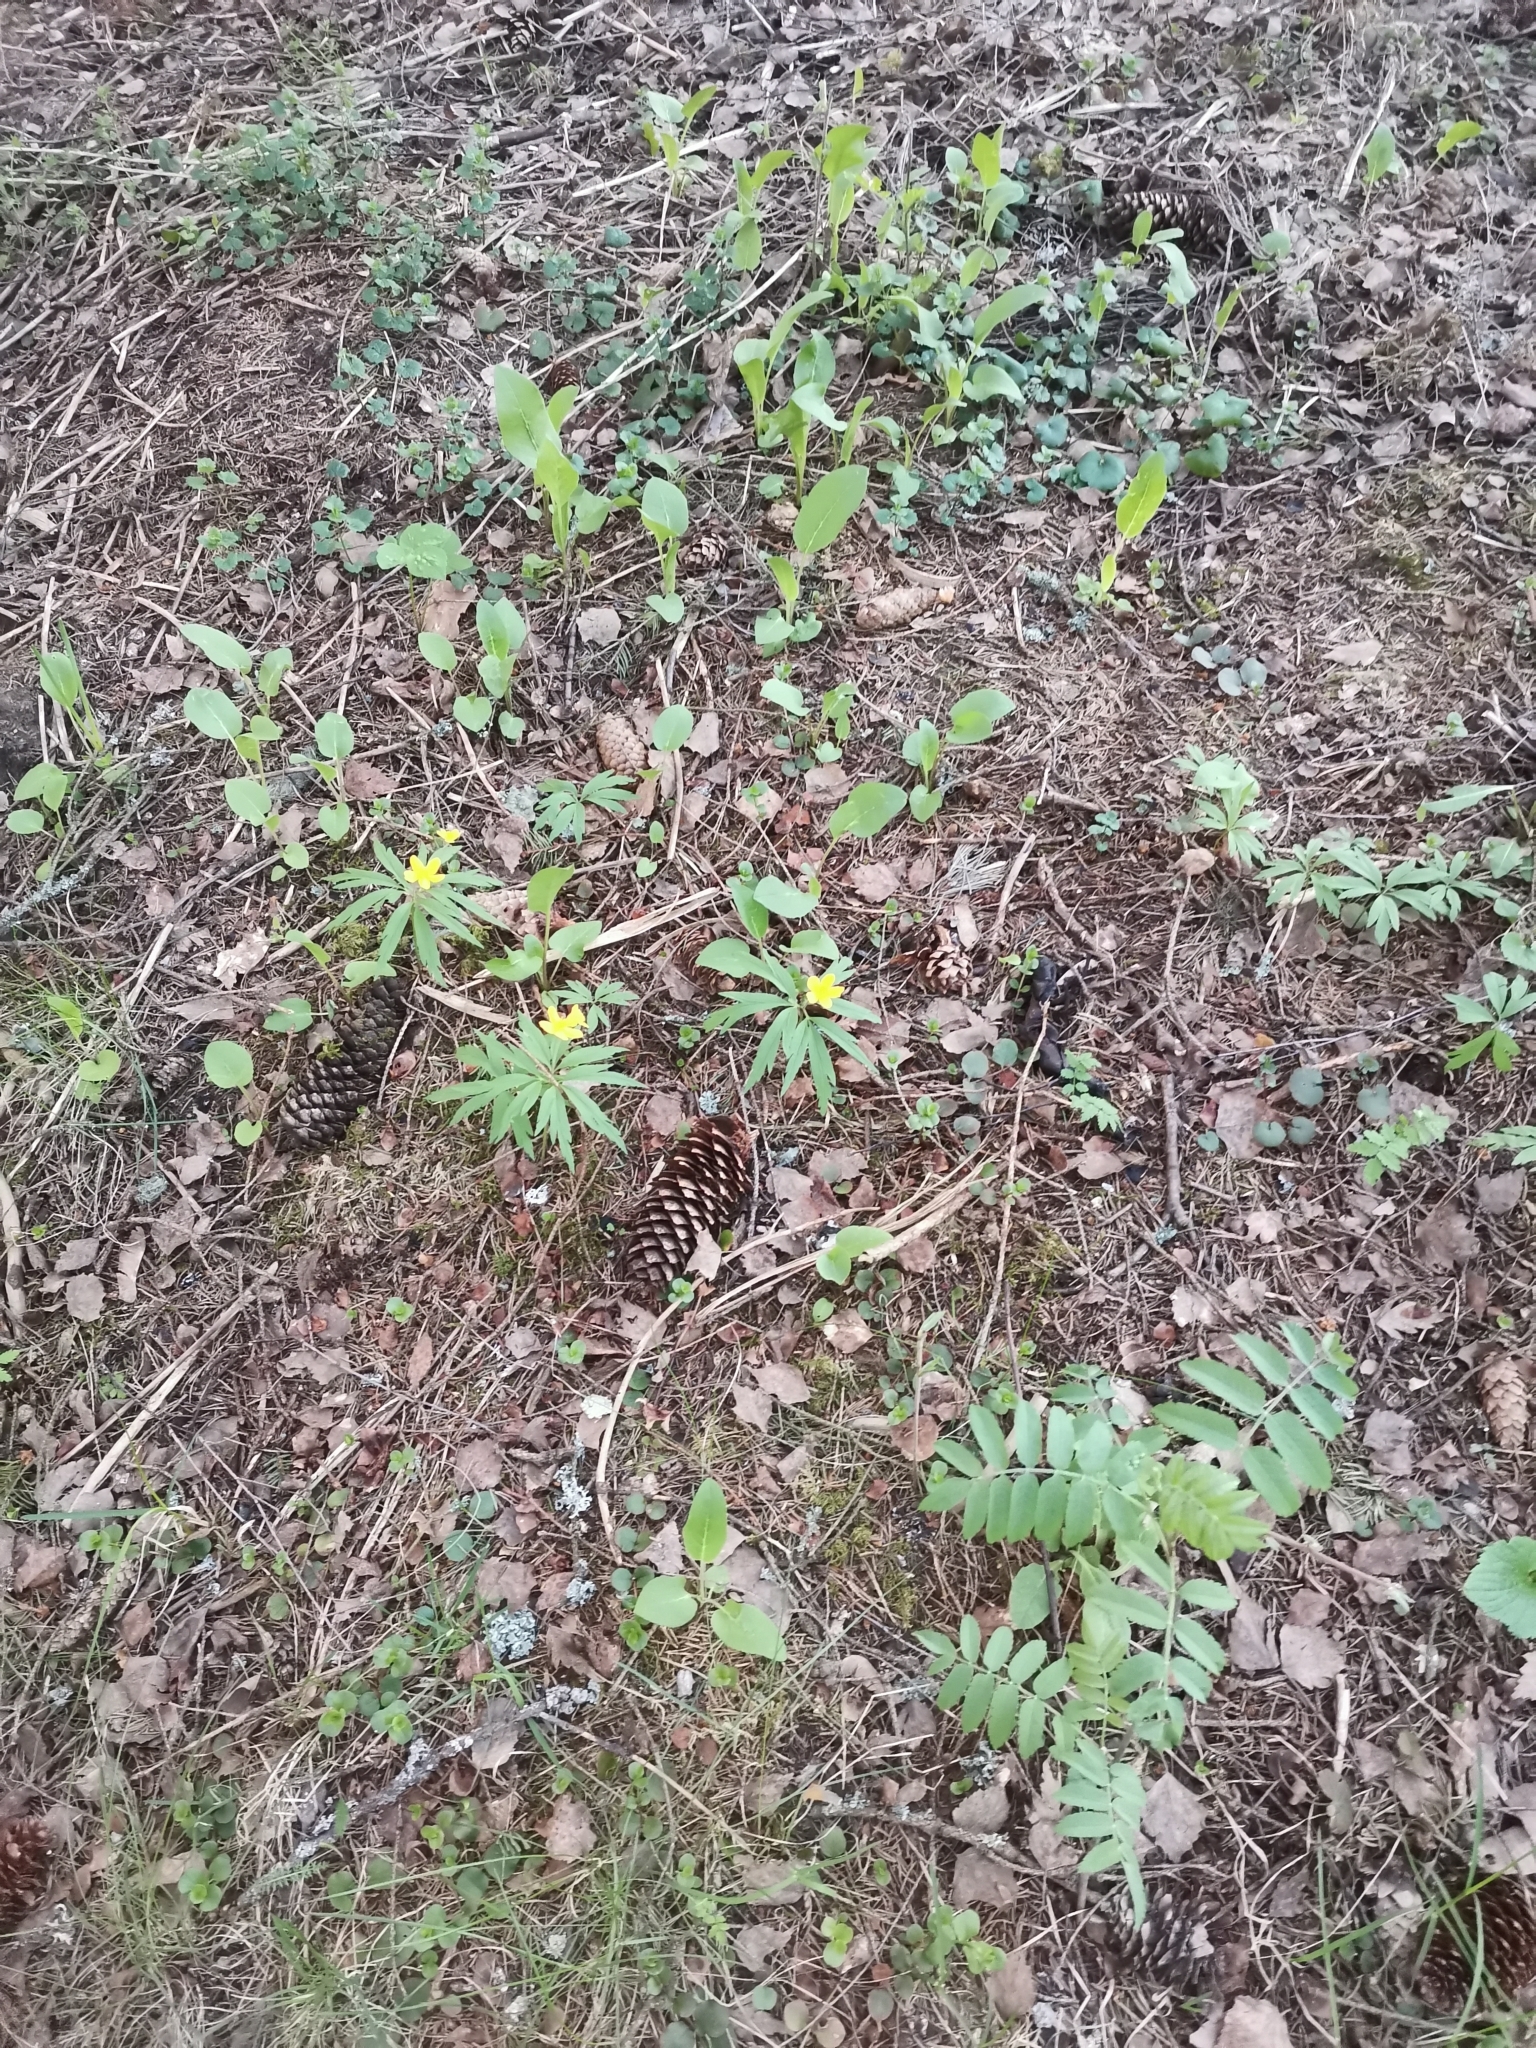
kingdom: Plantae
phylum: Tracheophyta
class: Magnoliopsida
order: Ranunculales
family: Ranunculaceae
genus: Anemone
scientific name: Anemone ranunculoides
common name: Yellow anemone
